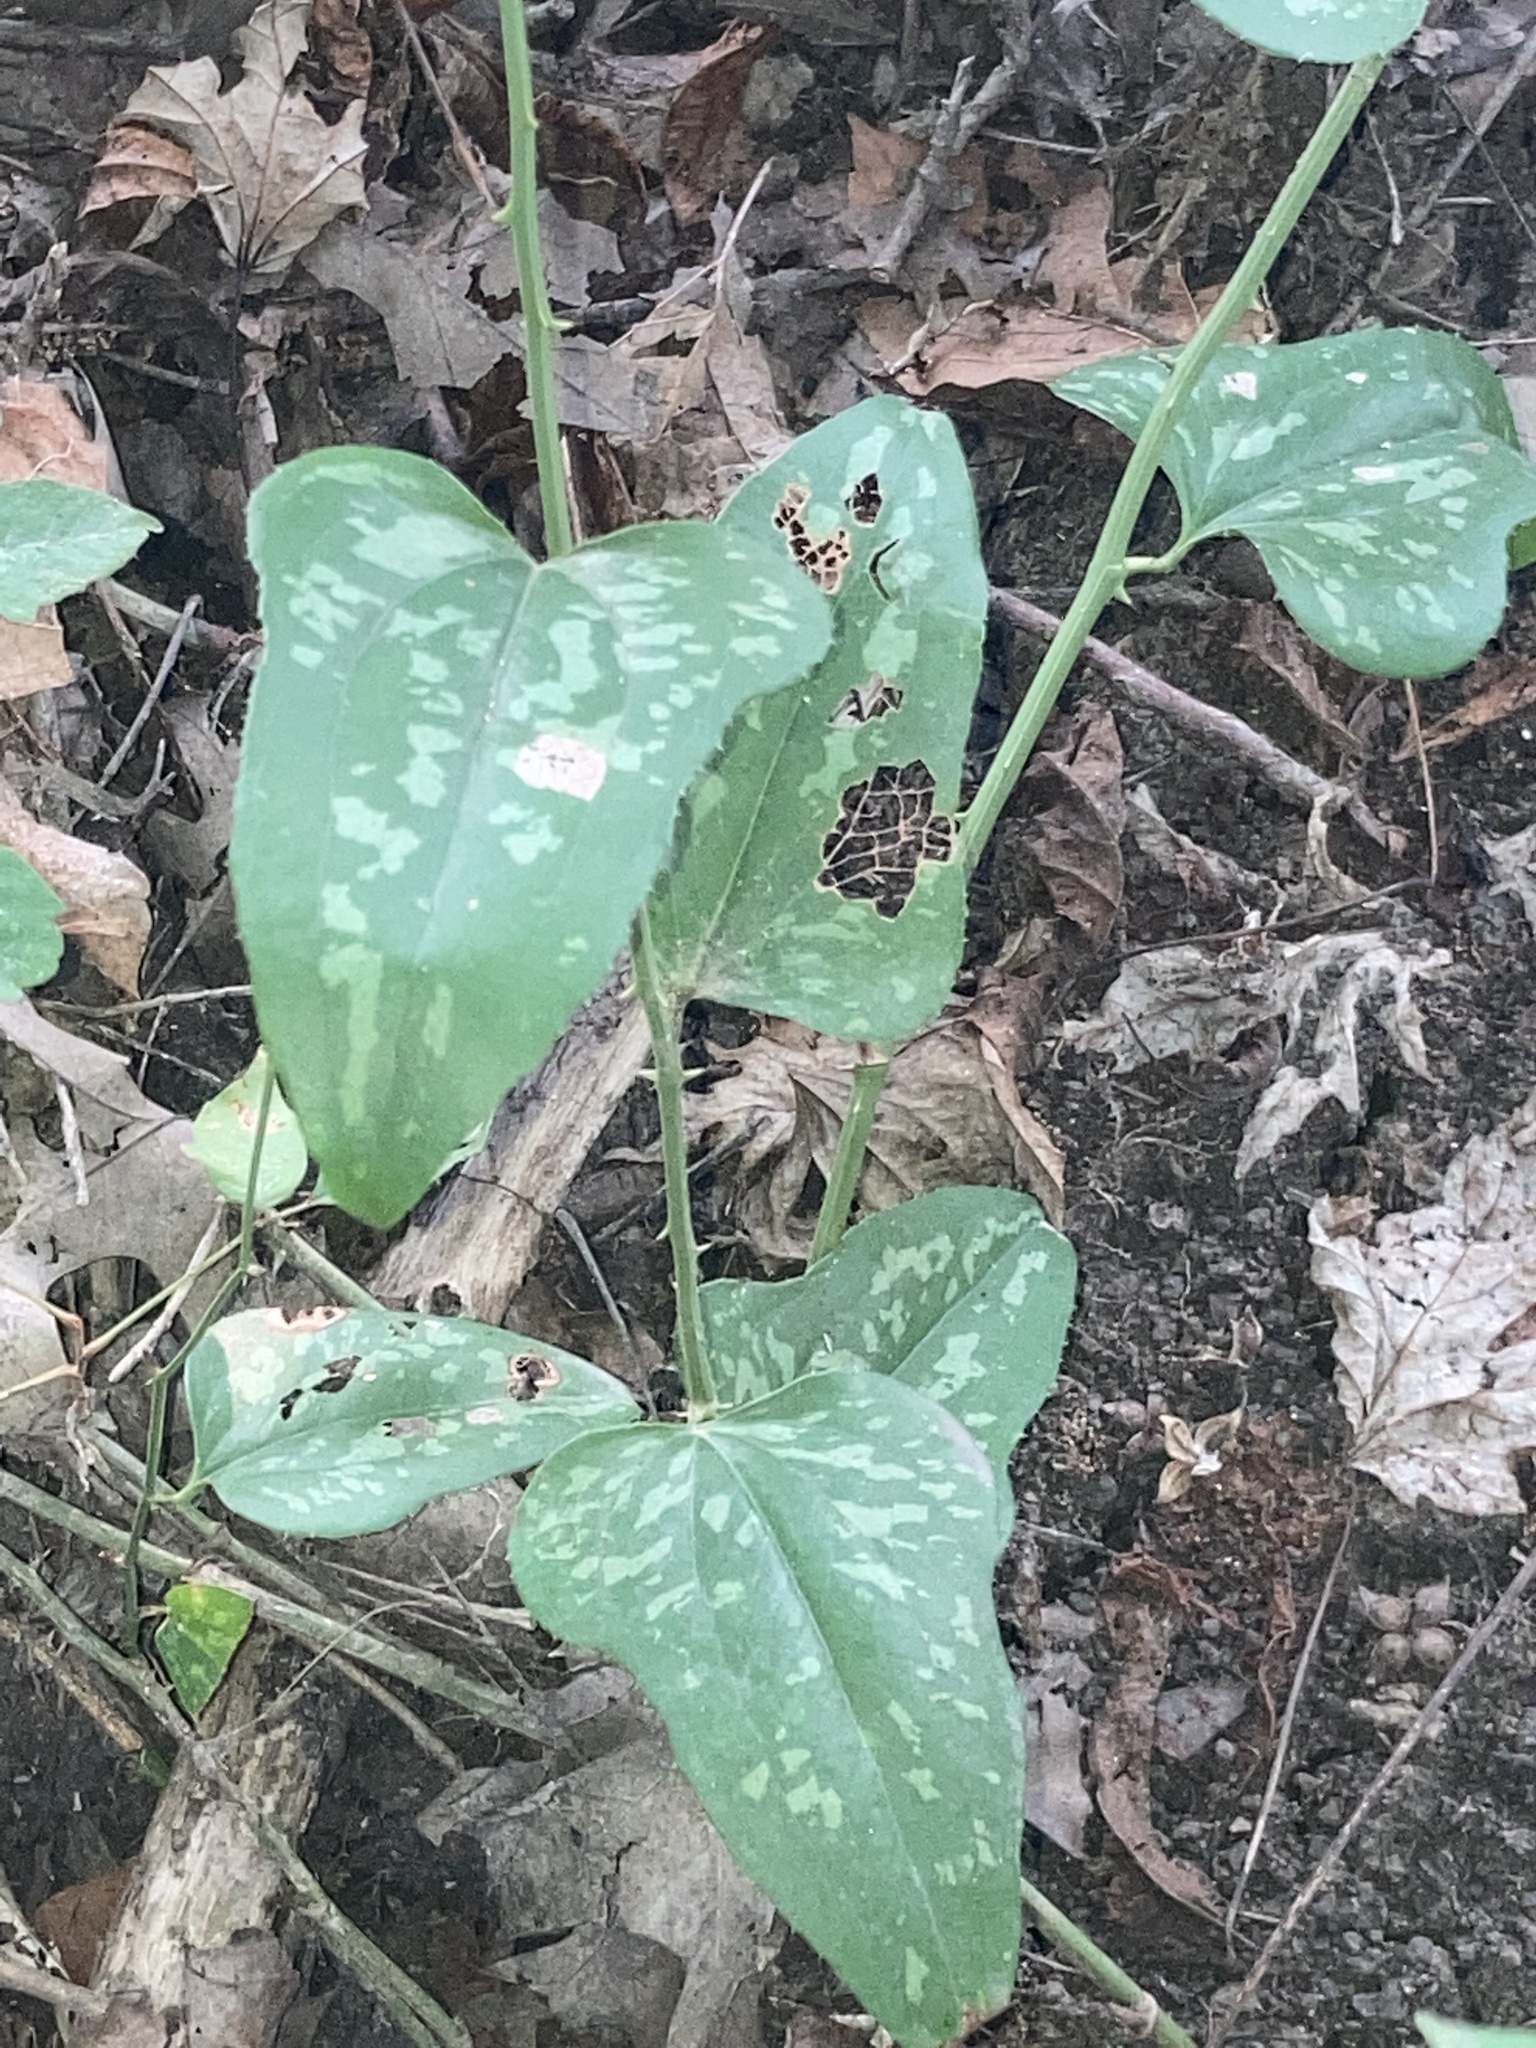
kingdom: Plantae
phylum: Tracheophyta
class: Liliopsida
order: Liliales
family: Smilacaceae
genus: Smilax
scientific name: Smilax bona-nox
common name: Catbrier
